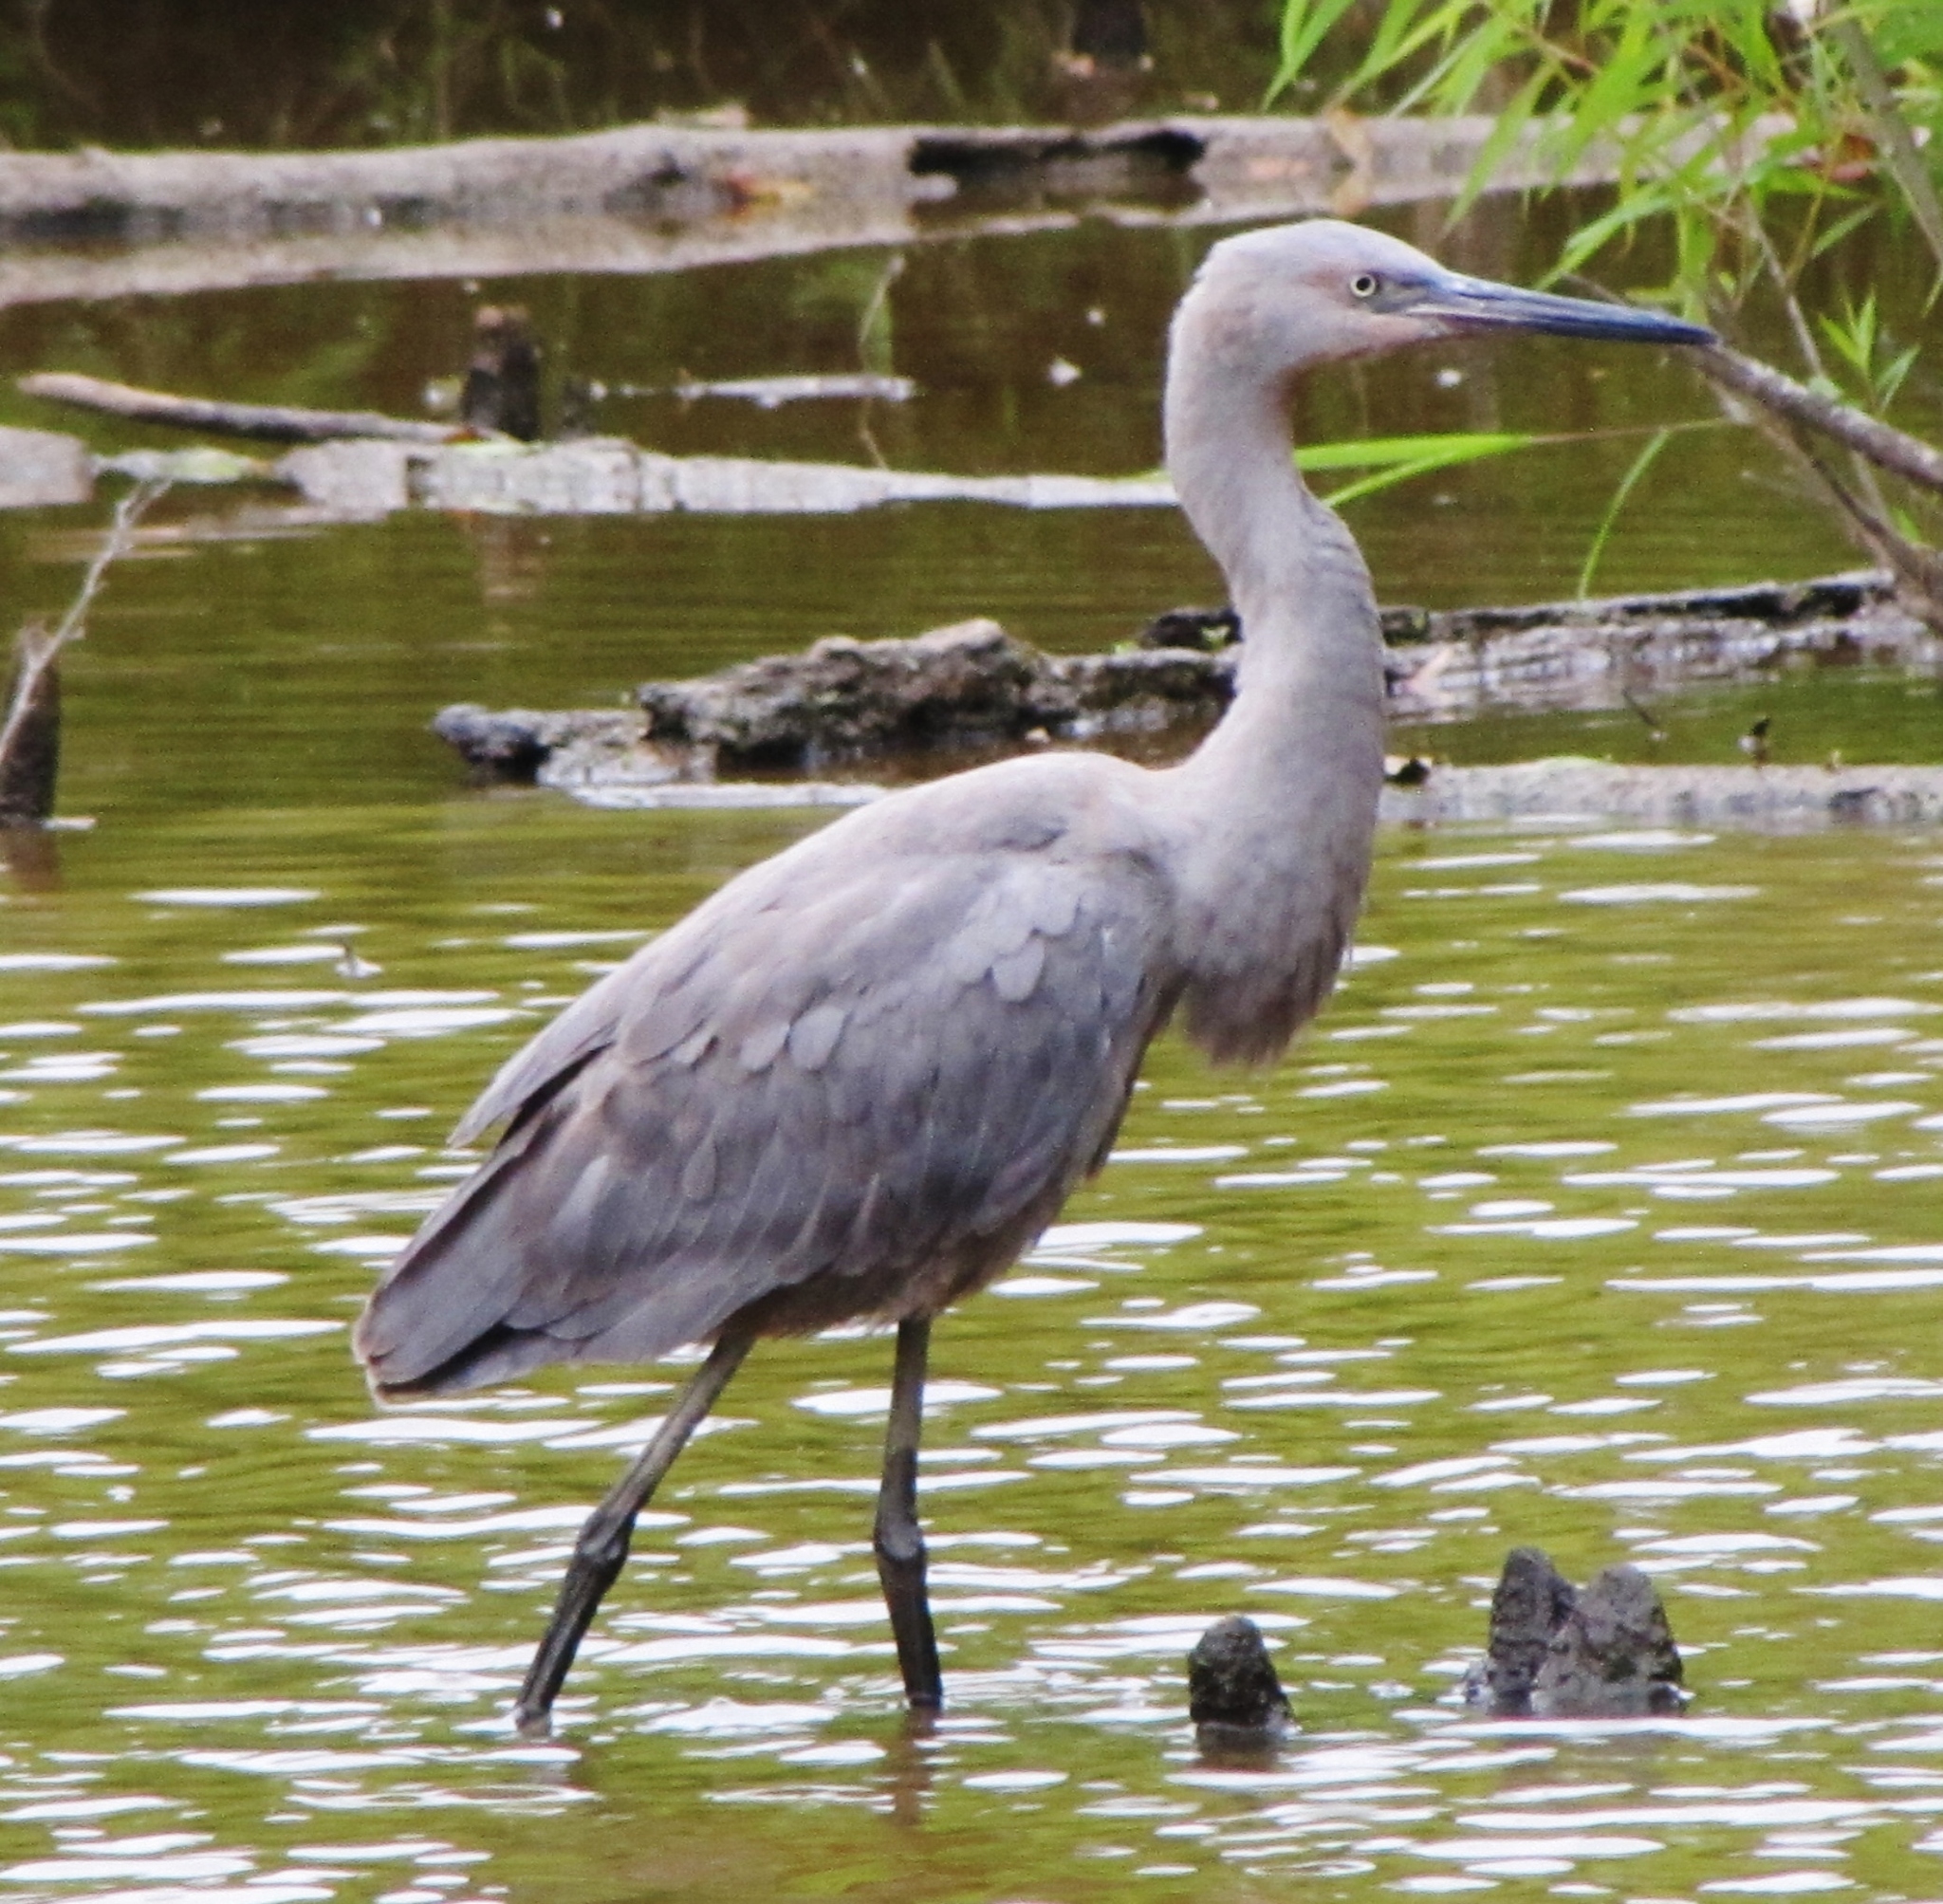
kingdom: Animalia
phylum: Chordata
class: Aves
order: Pelecaniformes
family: Ardeidae
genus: Egretta
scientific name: Egretta rufescens
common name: Reddish egret
